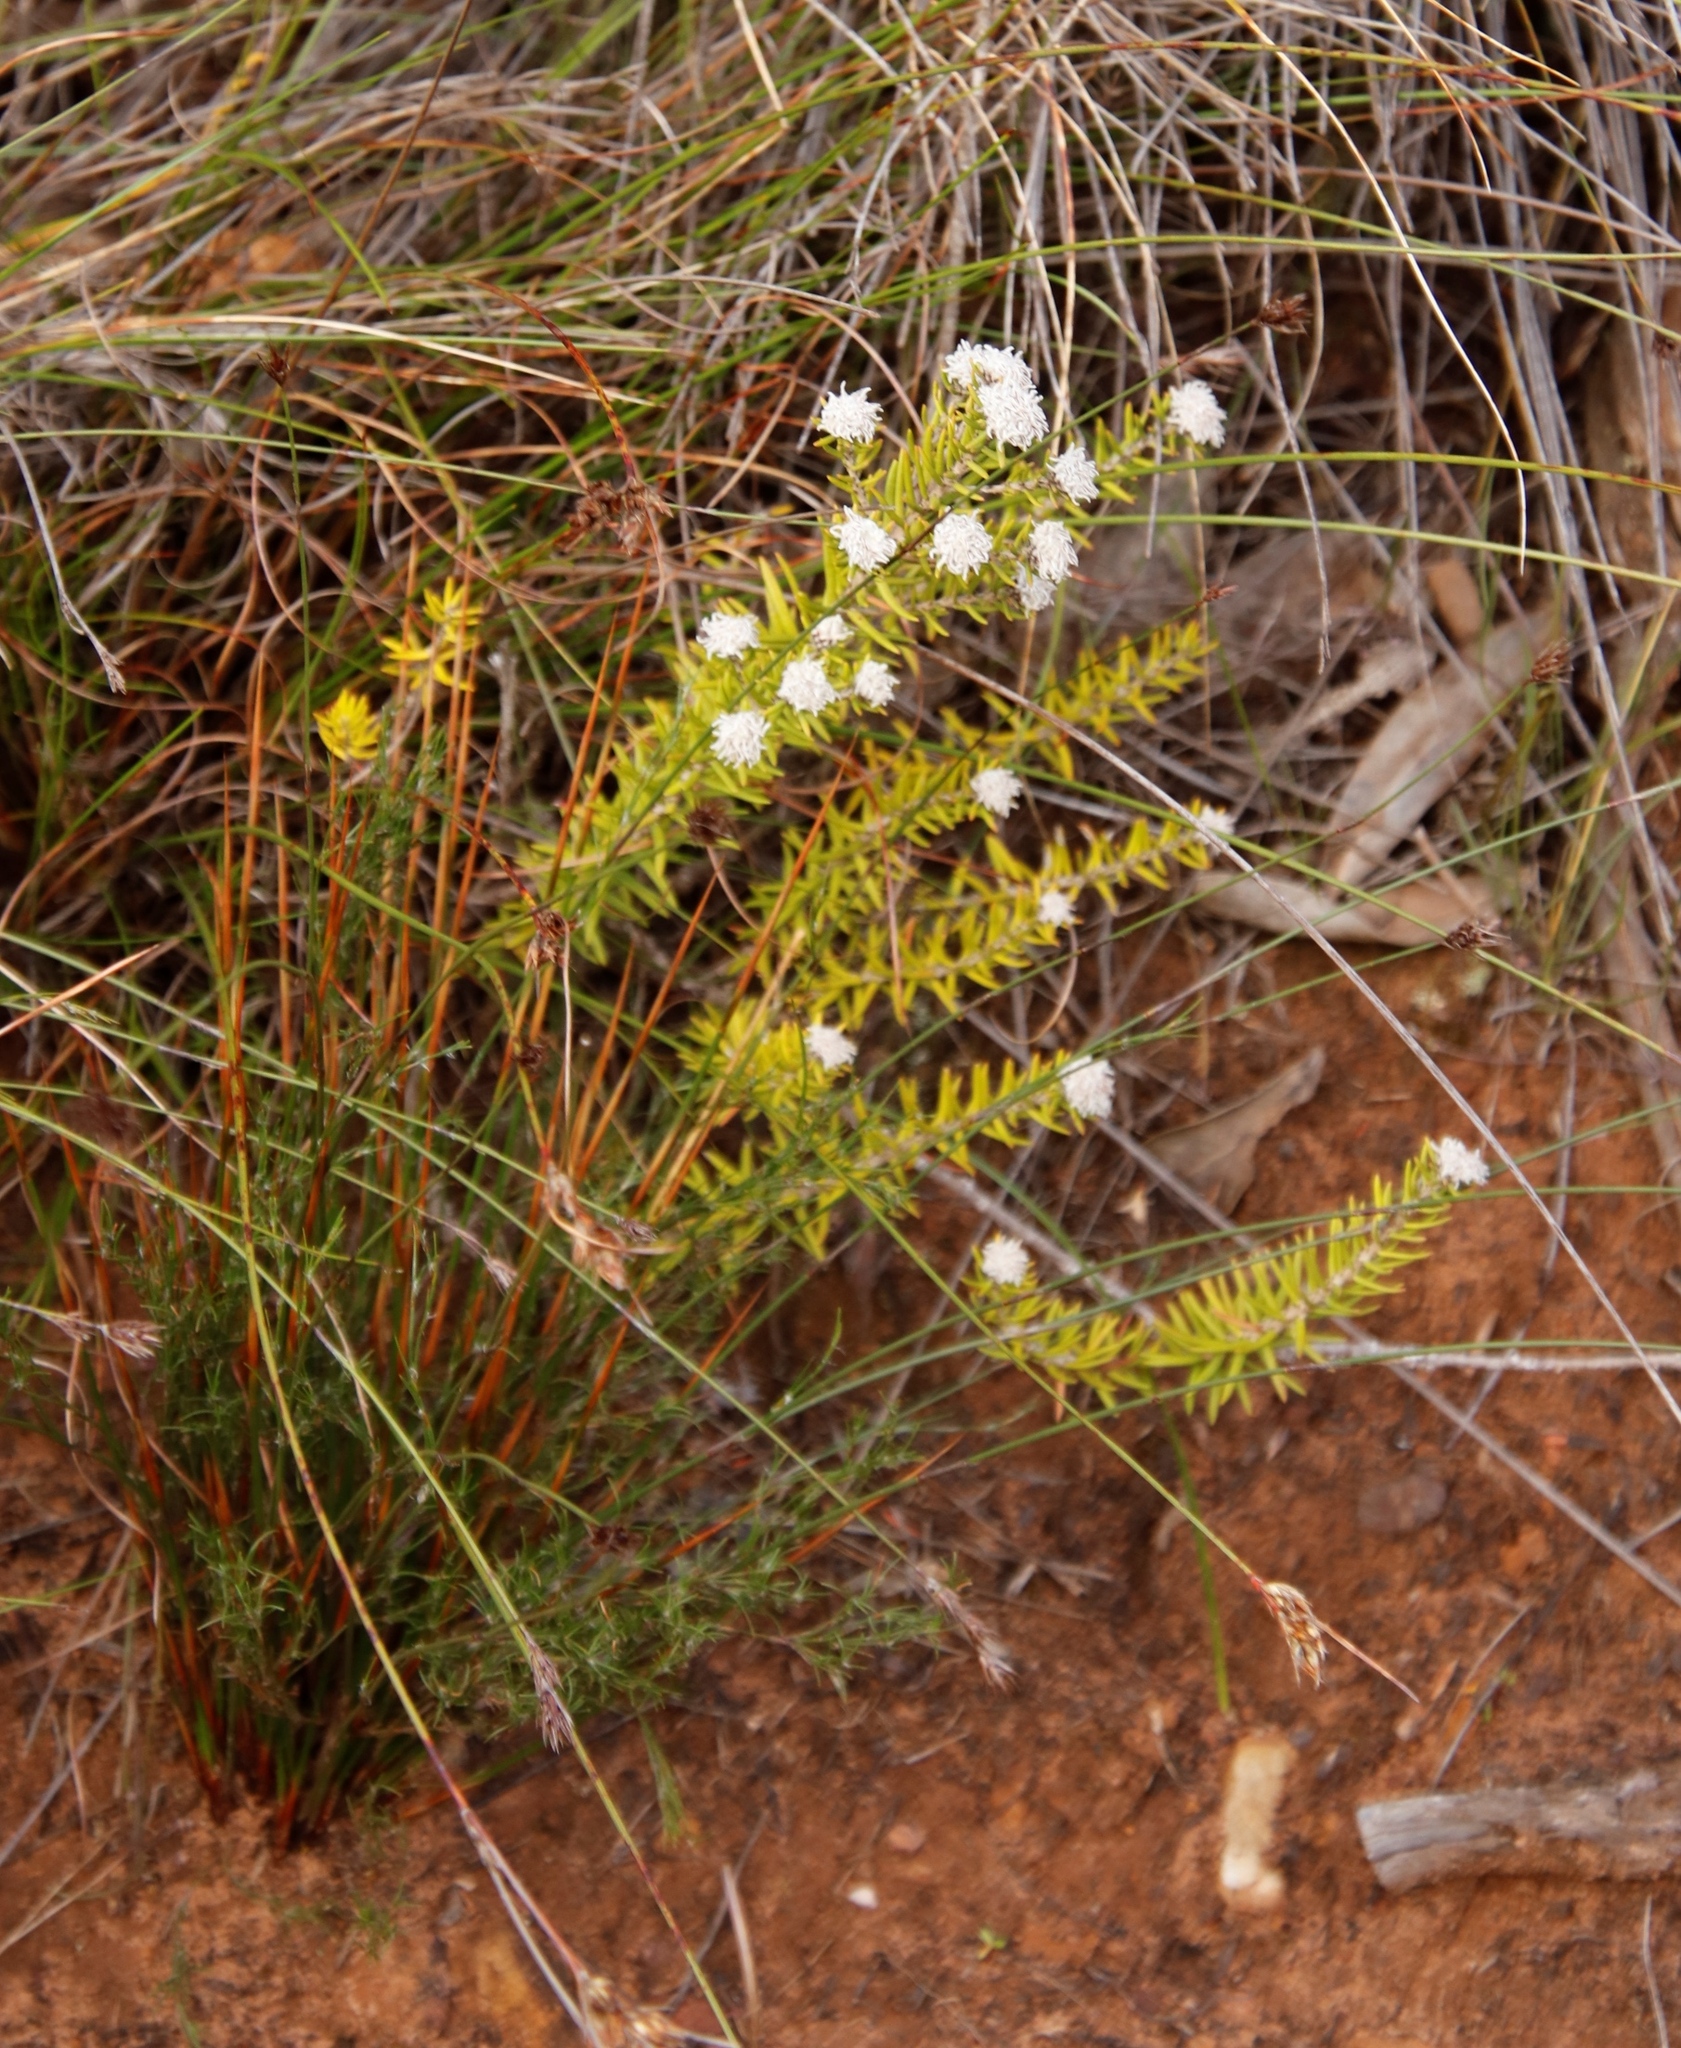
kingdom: Plantae
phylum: Tracheophyta
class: Magnoliopsida
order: Rosales
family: Rhamnaceae
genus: Trichocephalus
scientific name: Trichocephalus stipularis
